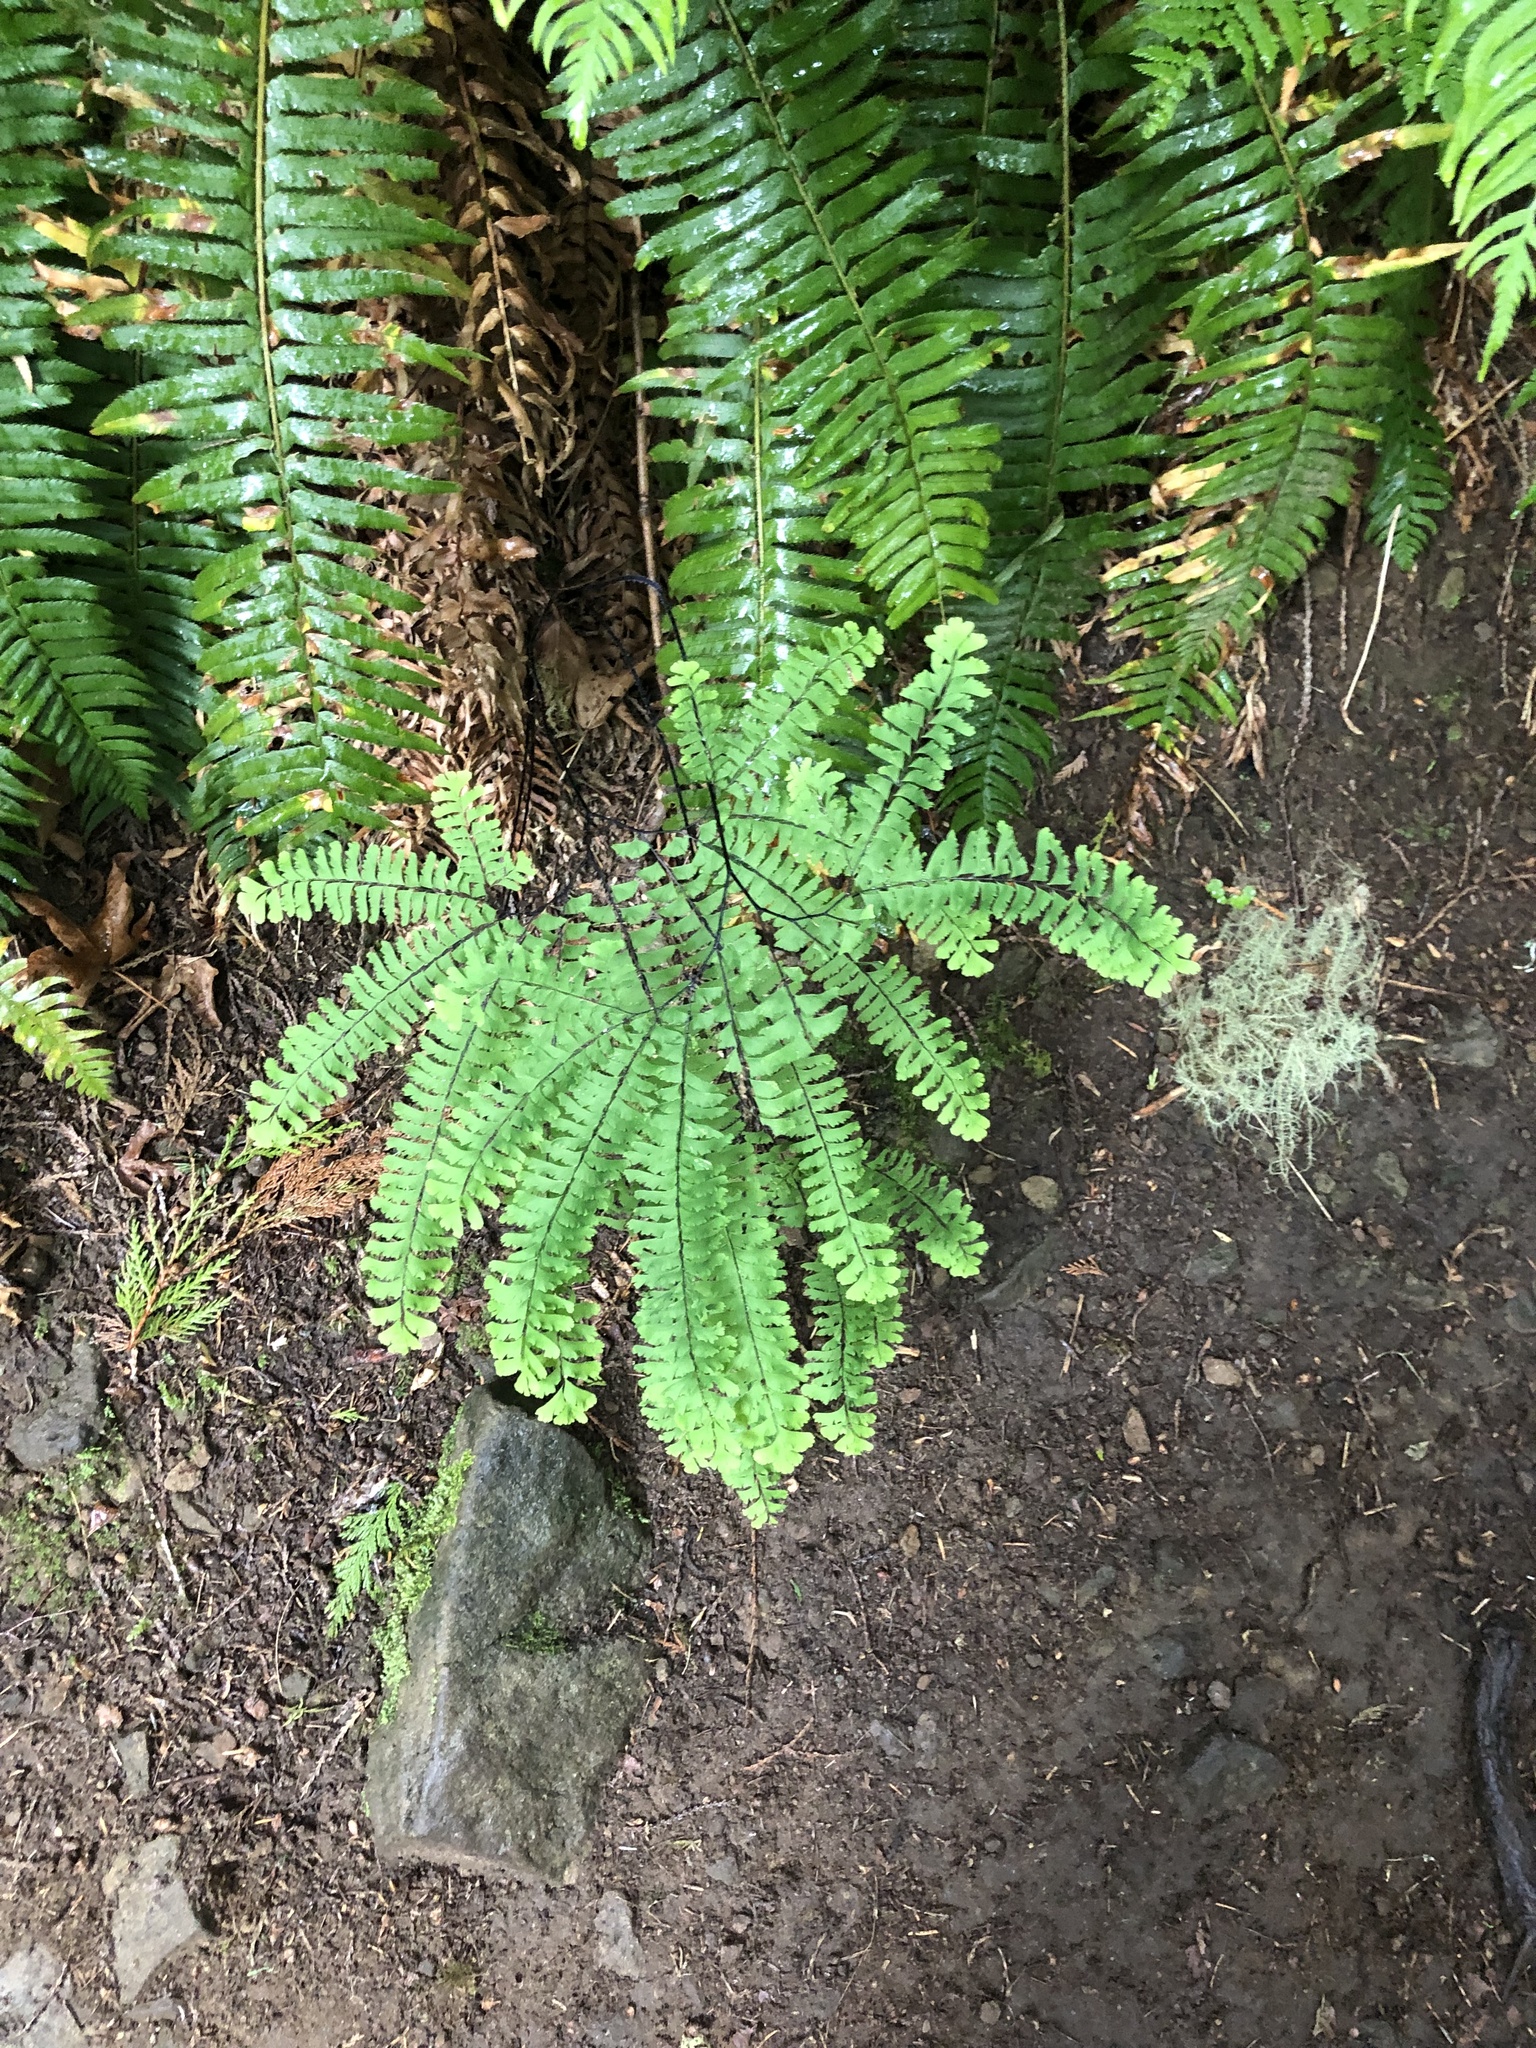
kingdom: Plantae
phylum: Tracheophyta
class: Polypodiopsida
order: Polypodiales
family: Pteridaceae
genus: Adiantum
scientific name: Adiantum aleuticum
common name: Aleutian maidenhair fern
